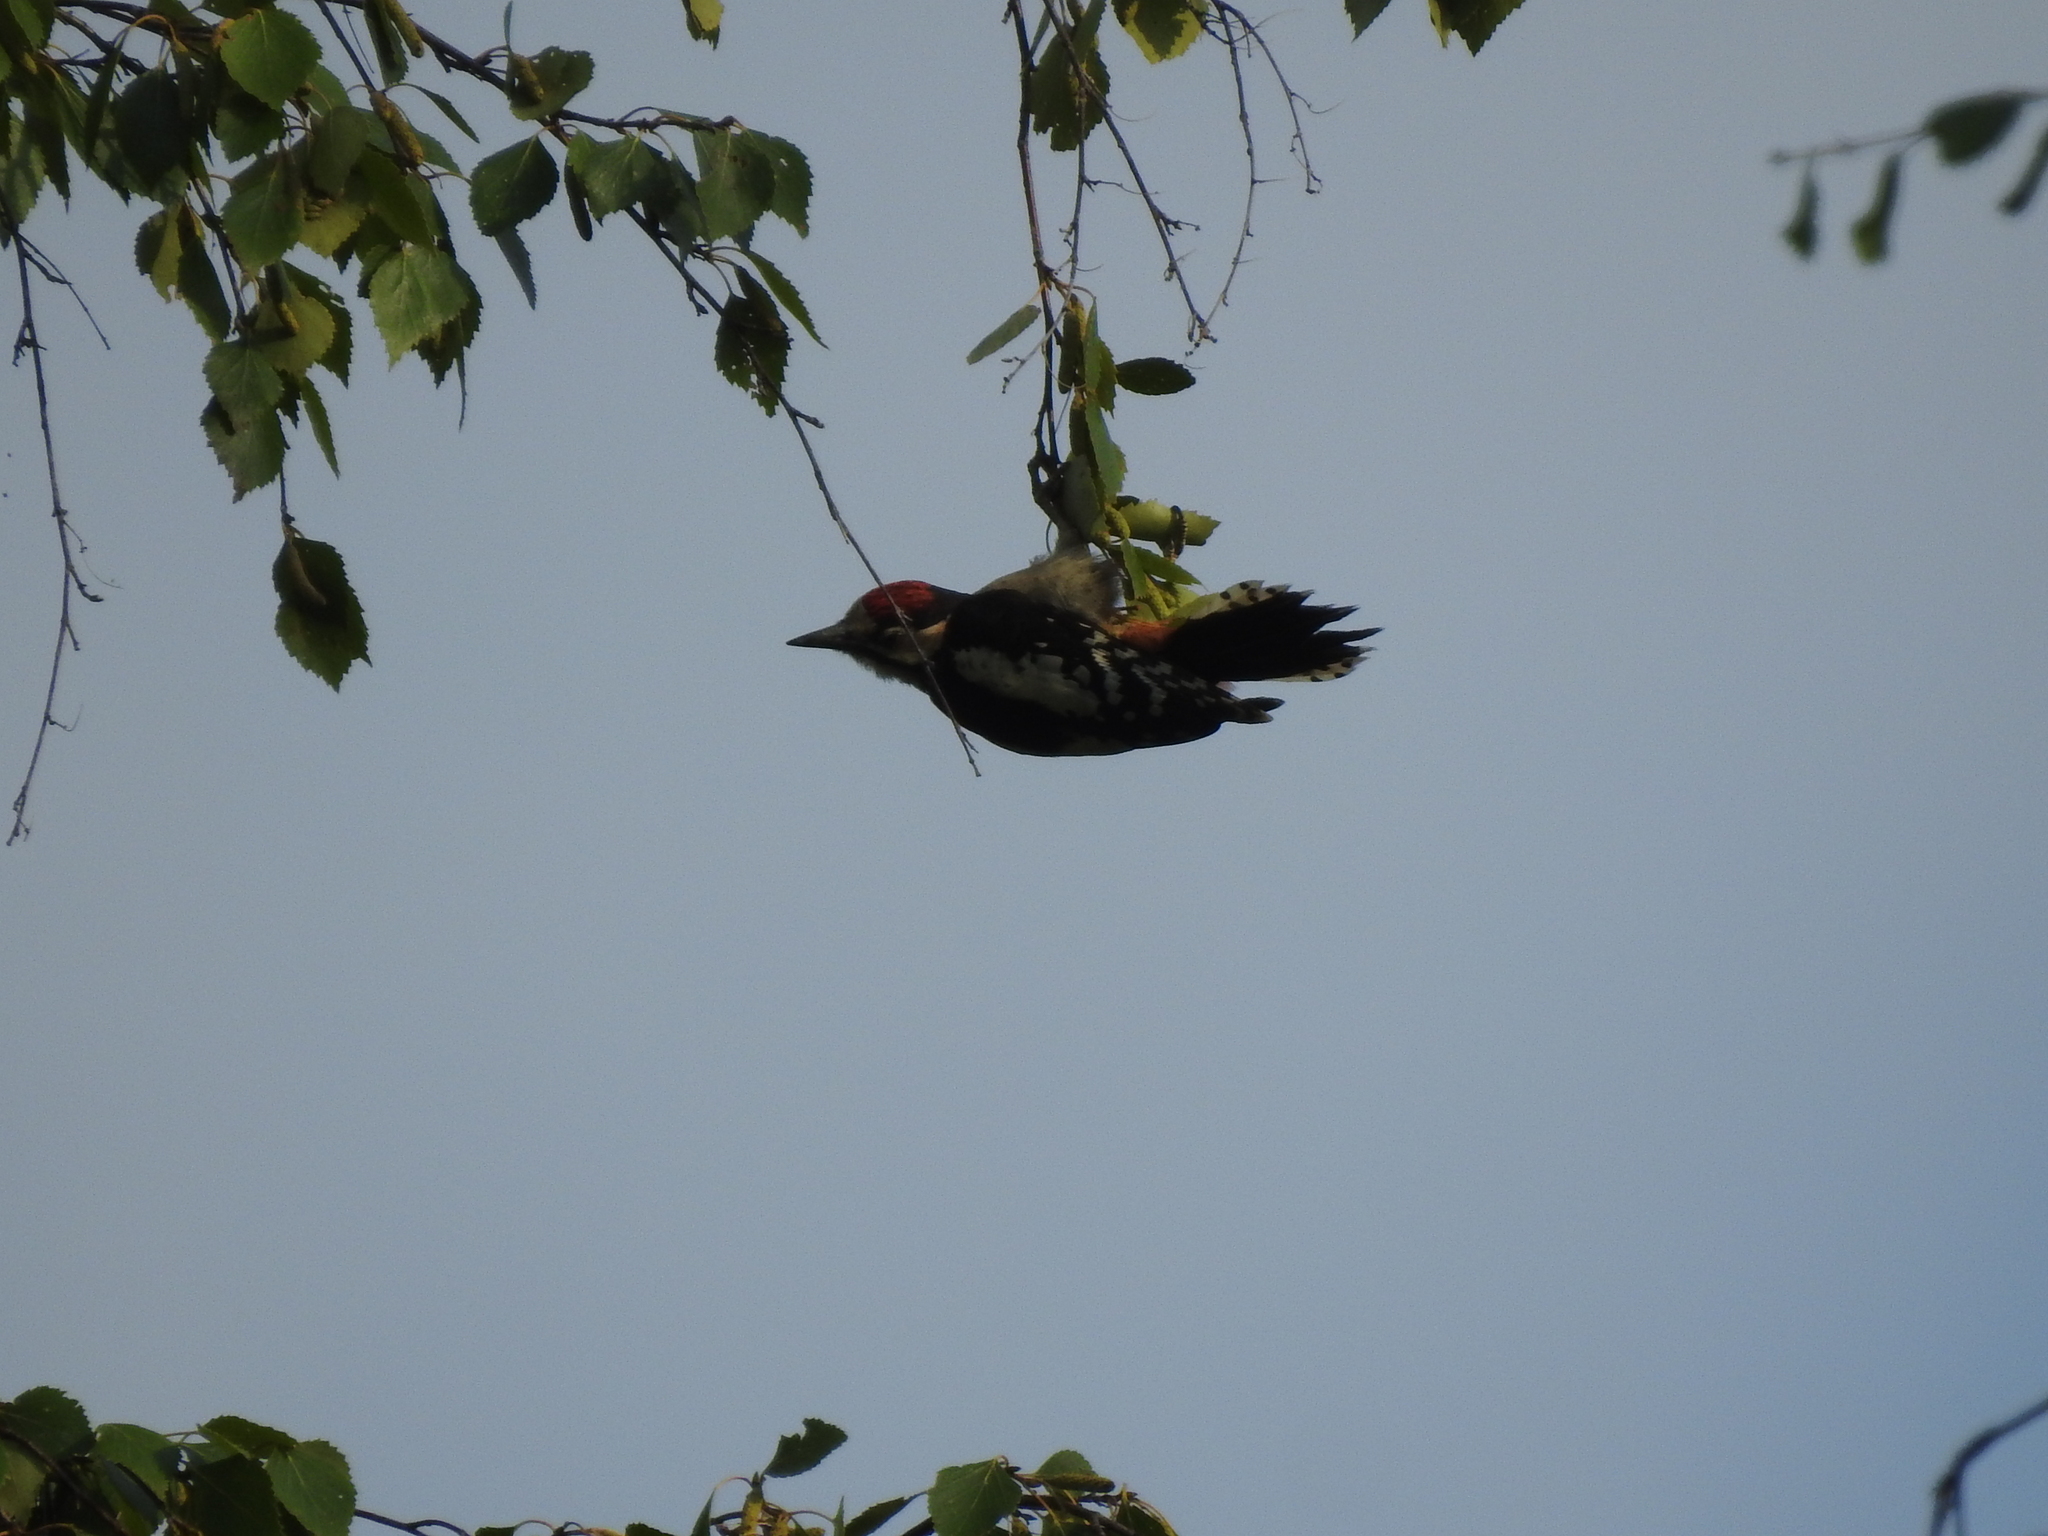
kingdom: Animalia
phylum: Chordata
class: Aves
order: Piciformes
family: Picidae
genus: Dendrocopos
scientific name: Dendrocopos major
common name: Great spotted woodpecker
